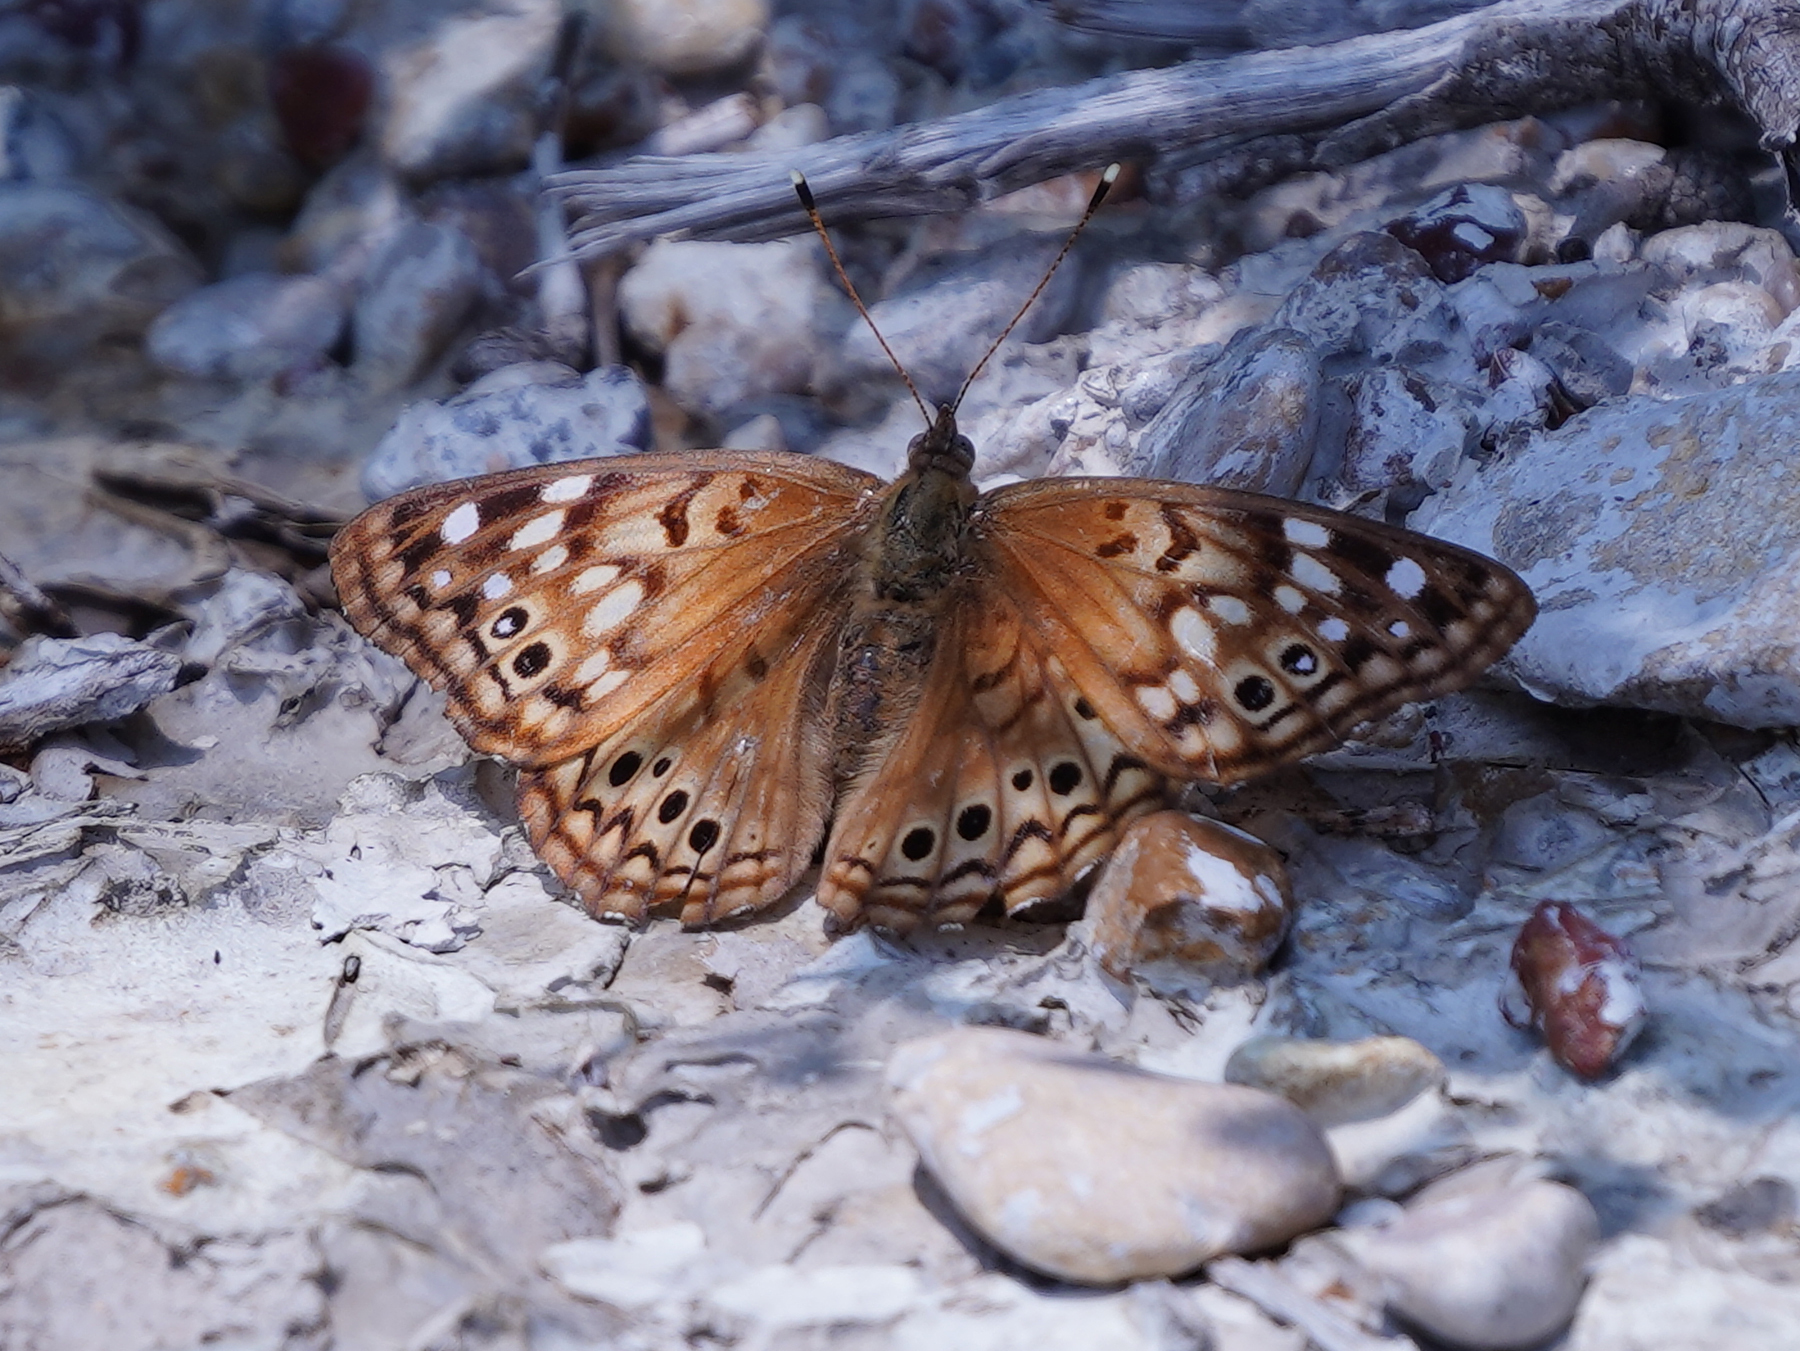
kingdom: Animalia
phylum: Arthropoda
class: Insecta
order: Lepidoptera
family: Nymphalidae
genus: Asterocampa
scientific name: Asterocampa celtis
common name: Hackberry emperor
